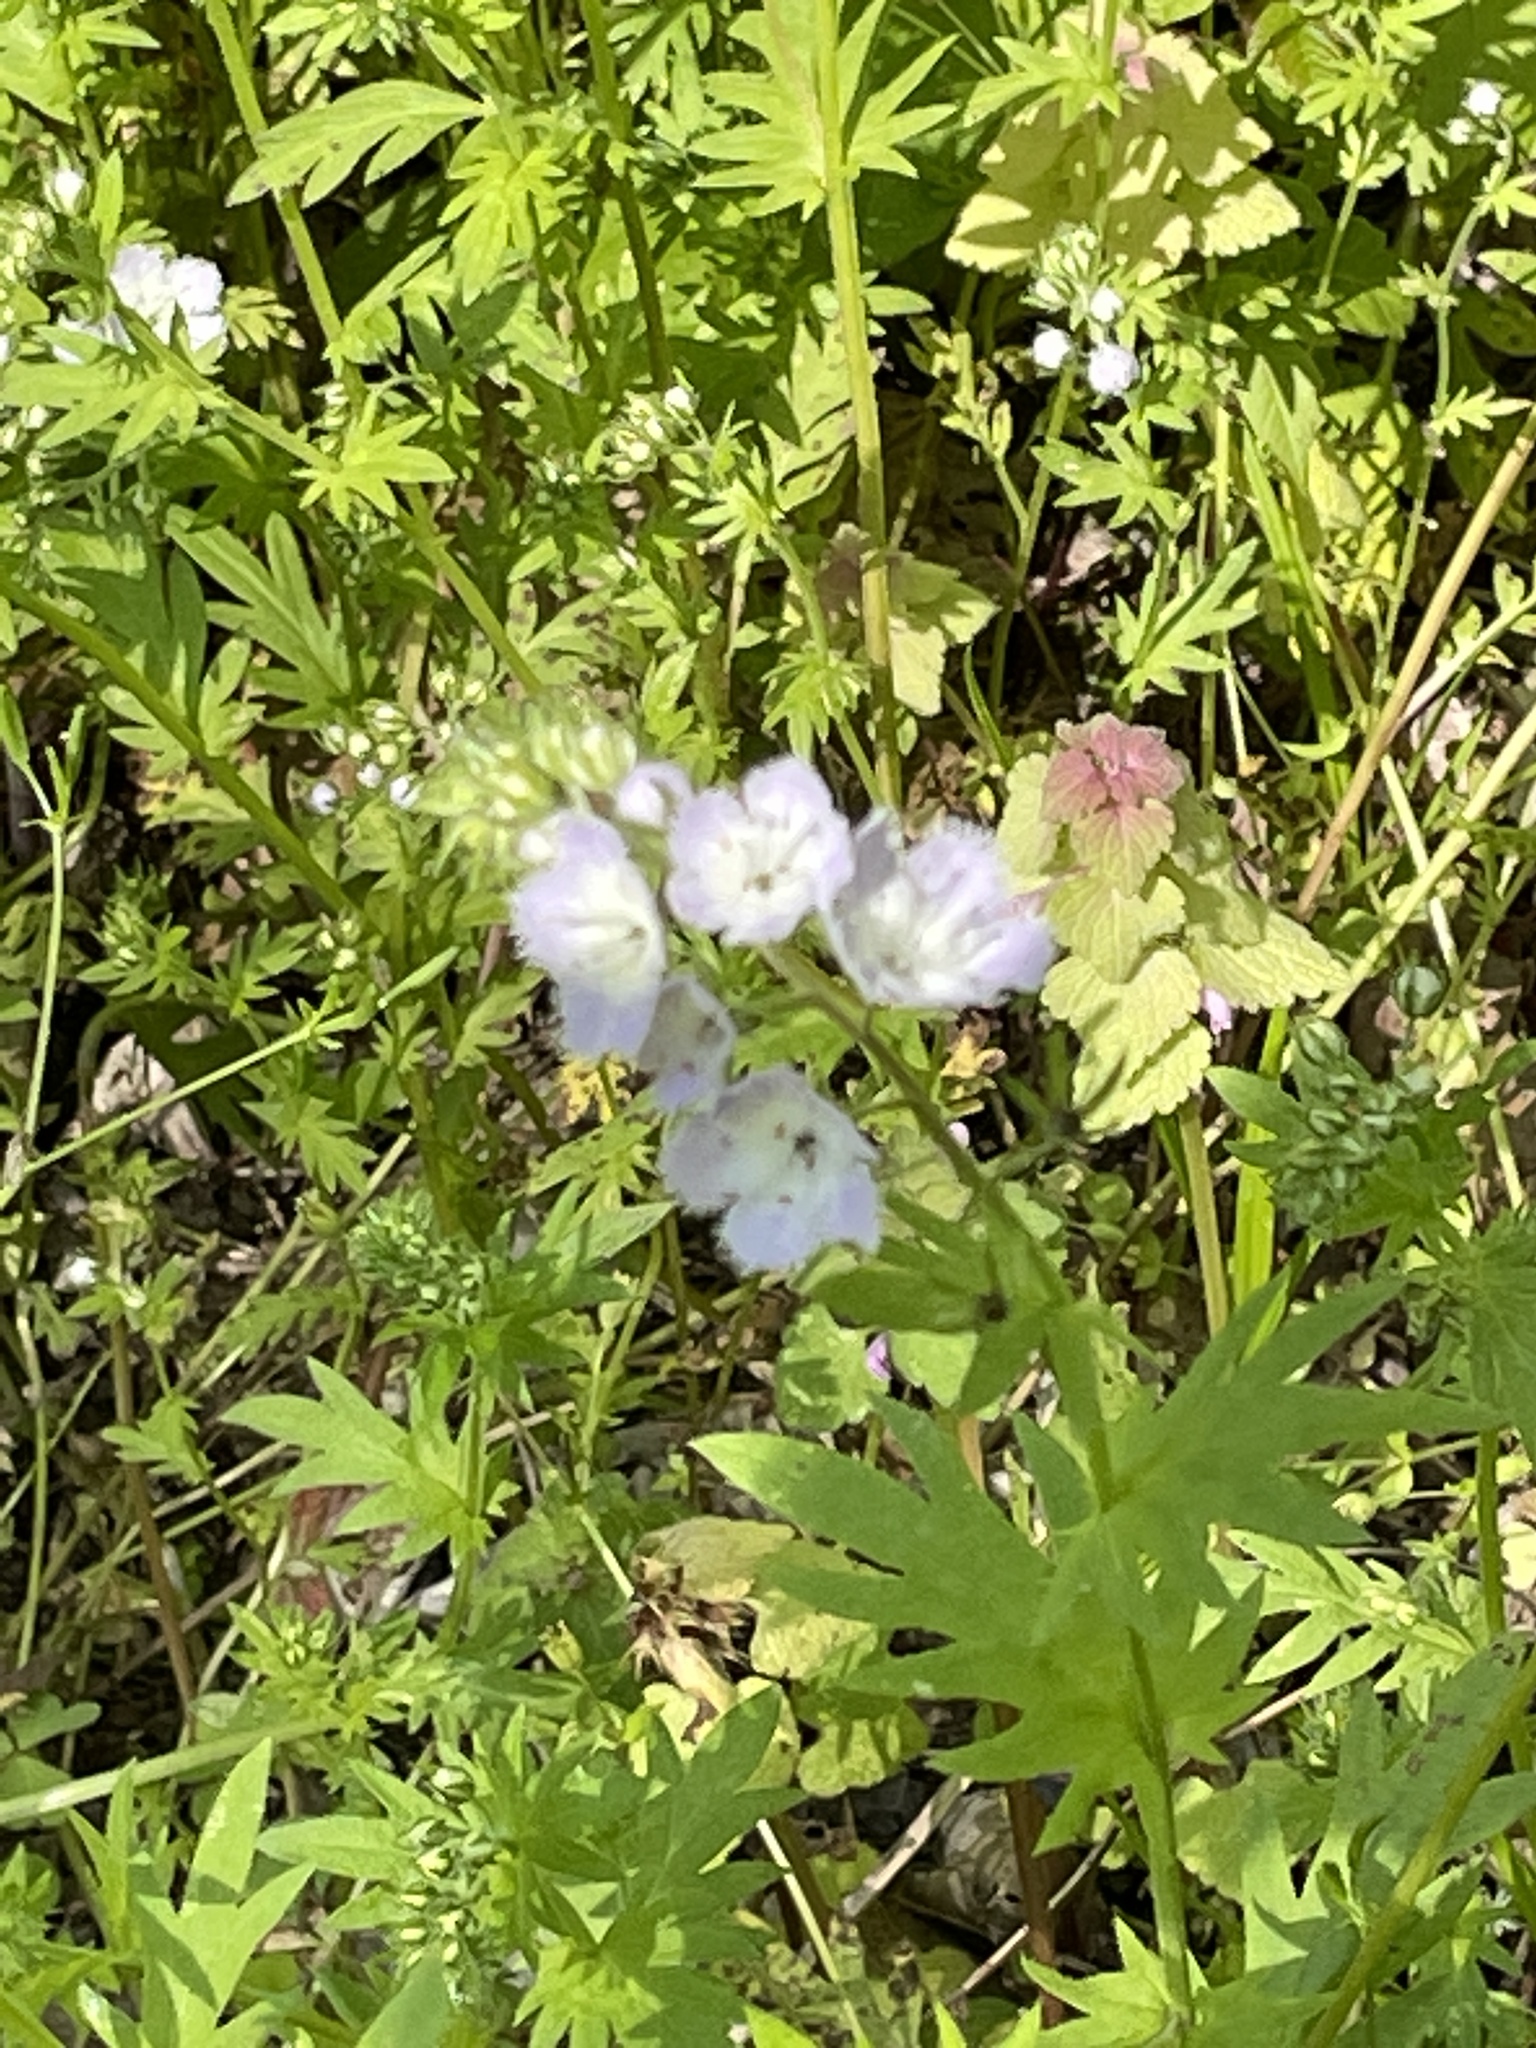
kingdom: Plantae
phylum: Tracheophyta
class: Magnoliopsida
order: Boraginales
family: Hydrophyllaceae
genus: Phacelia
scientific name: Phacelia purshii
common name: Miami-mist
